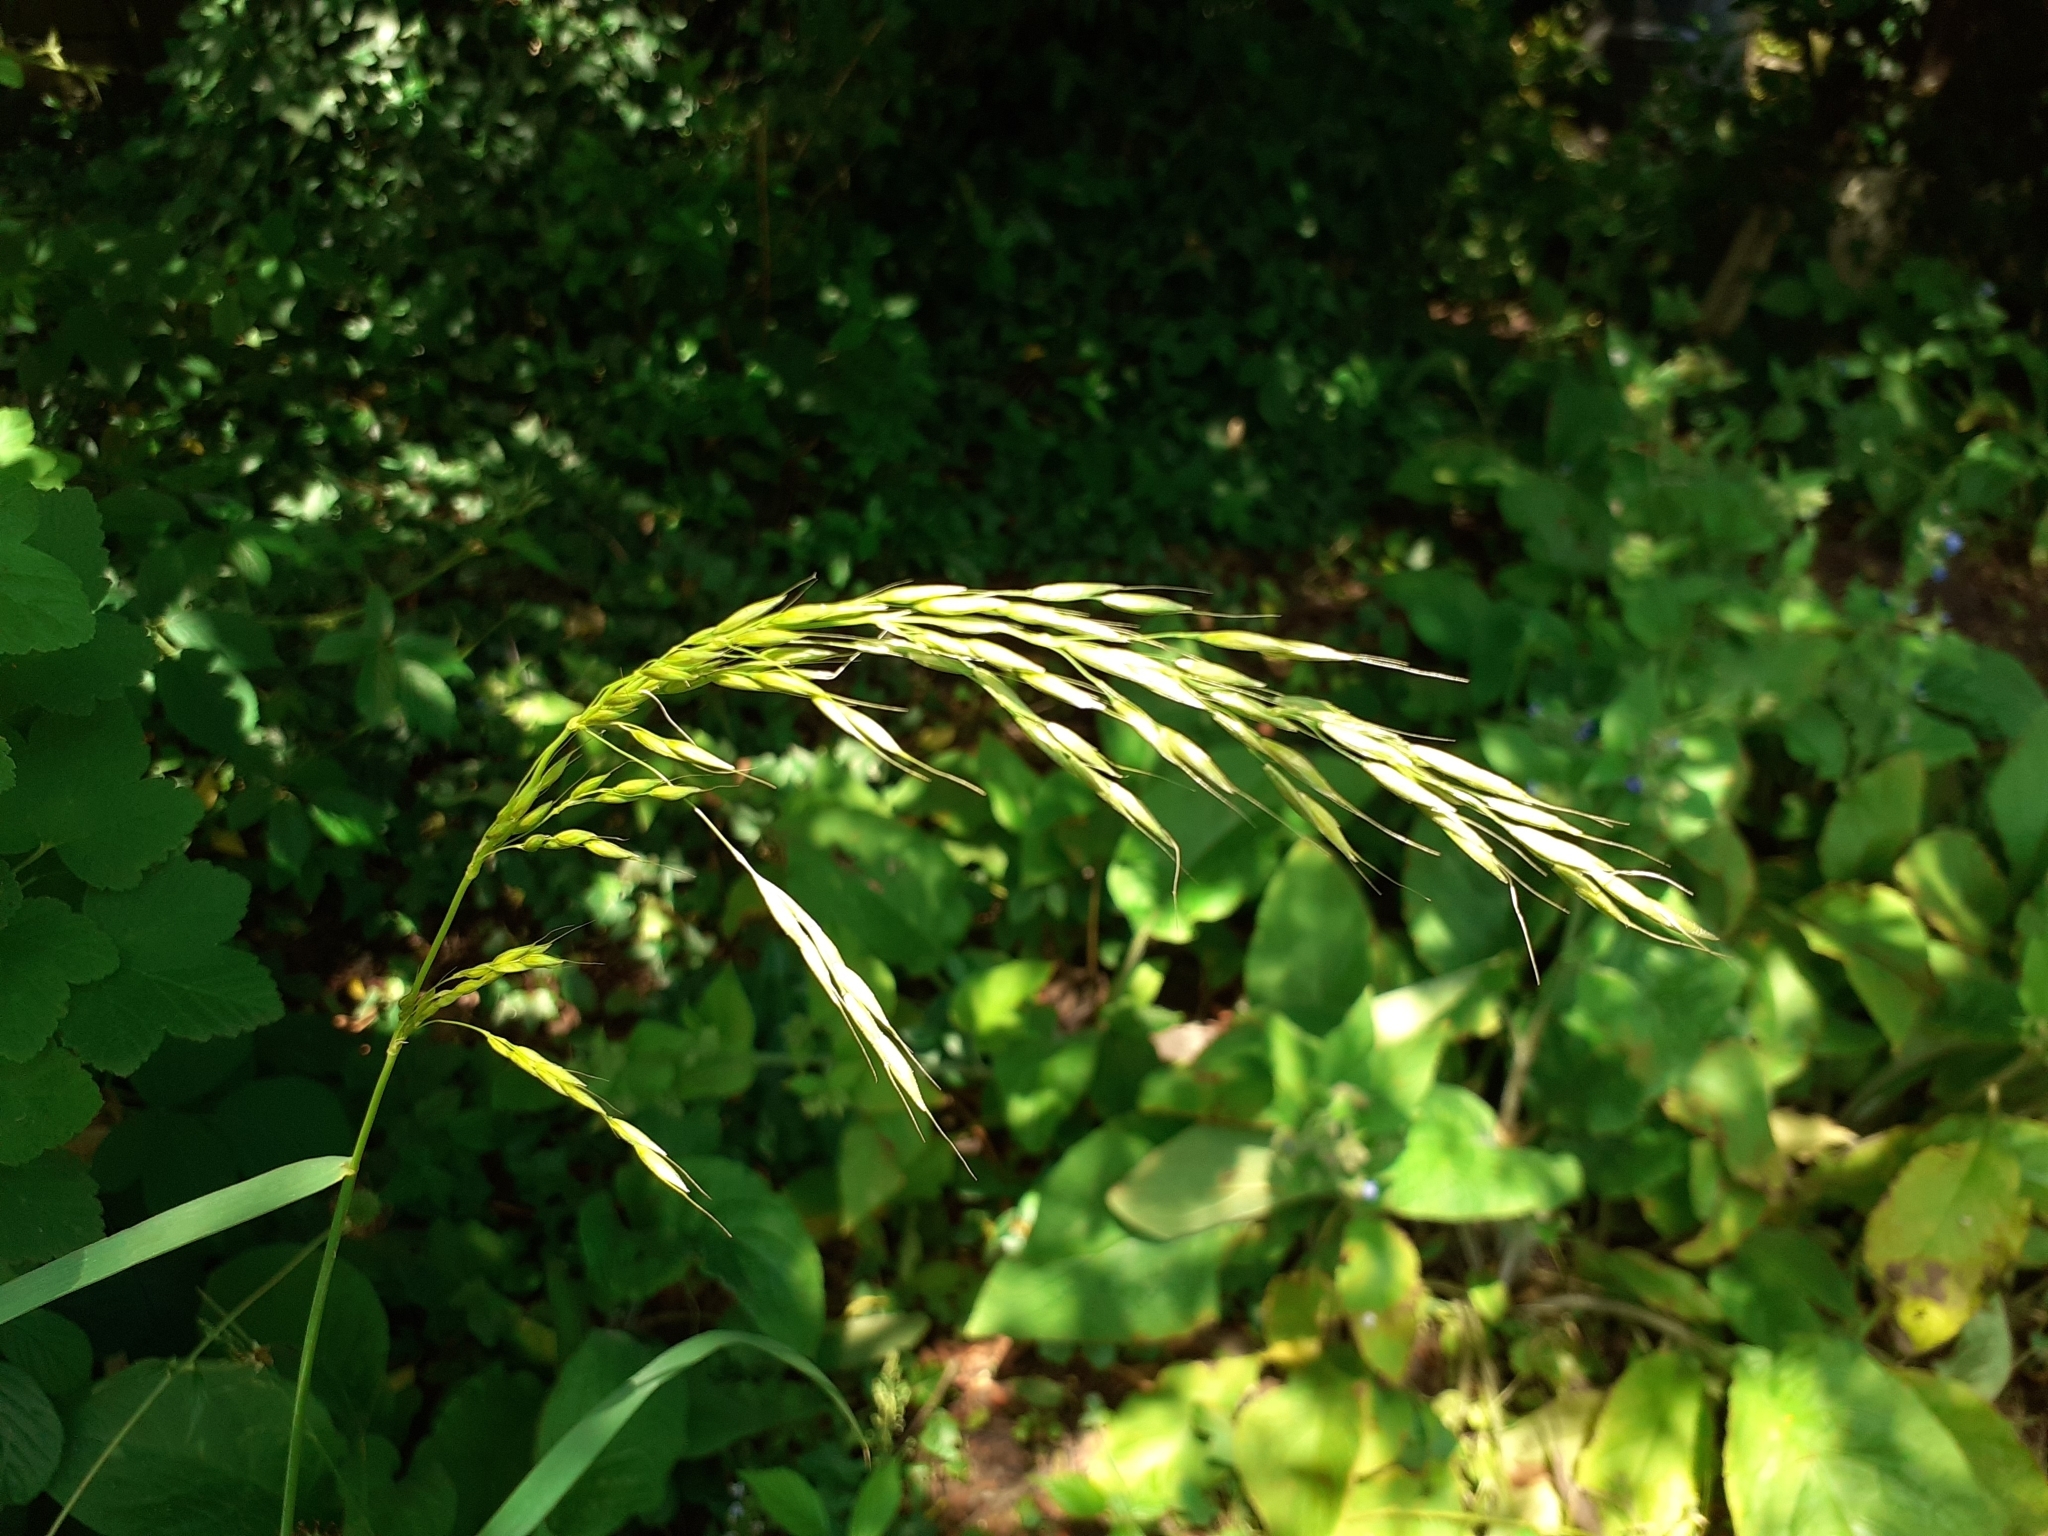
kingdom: Plantae
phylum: Tracheophyta
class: Liliopsida
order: Poales
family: Poaceae
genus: Arrhenatherum
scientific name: Arrhenatherum elatius
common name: Tall oatgrass
